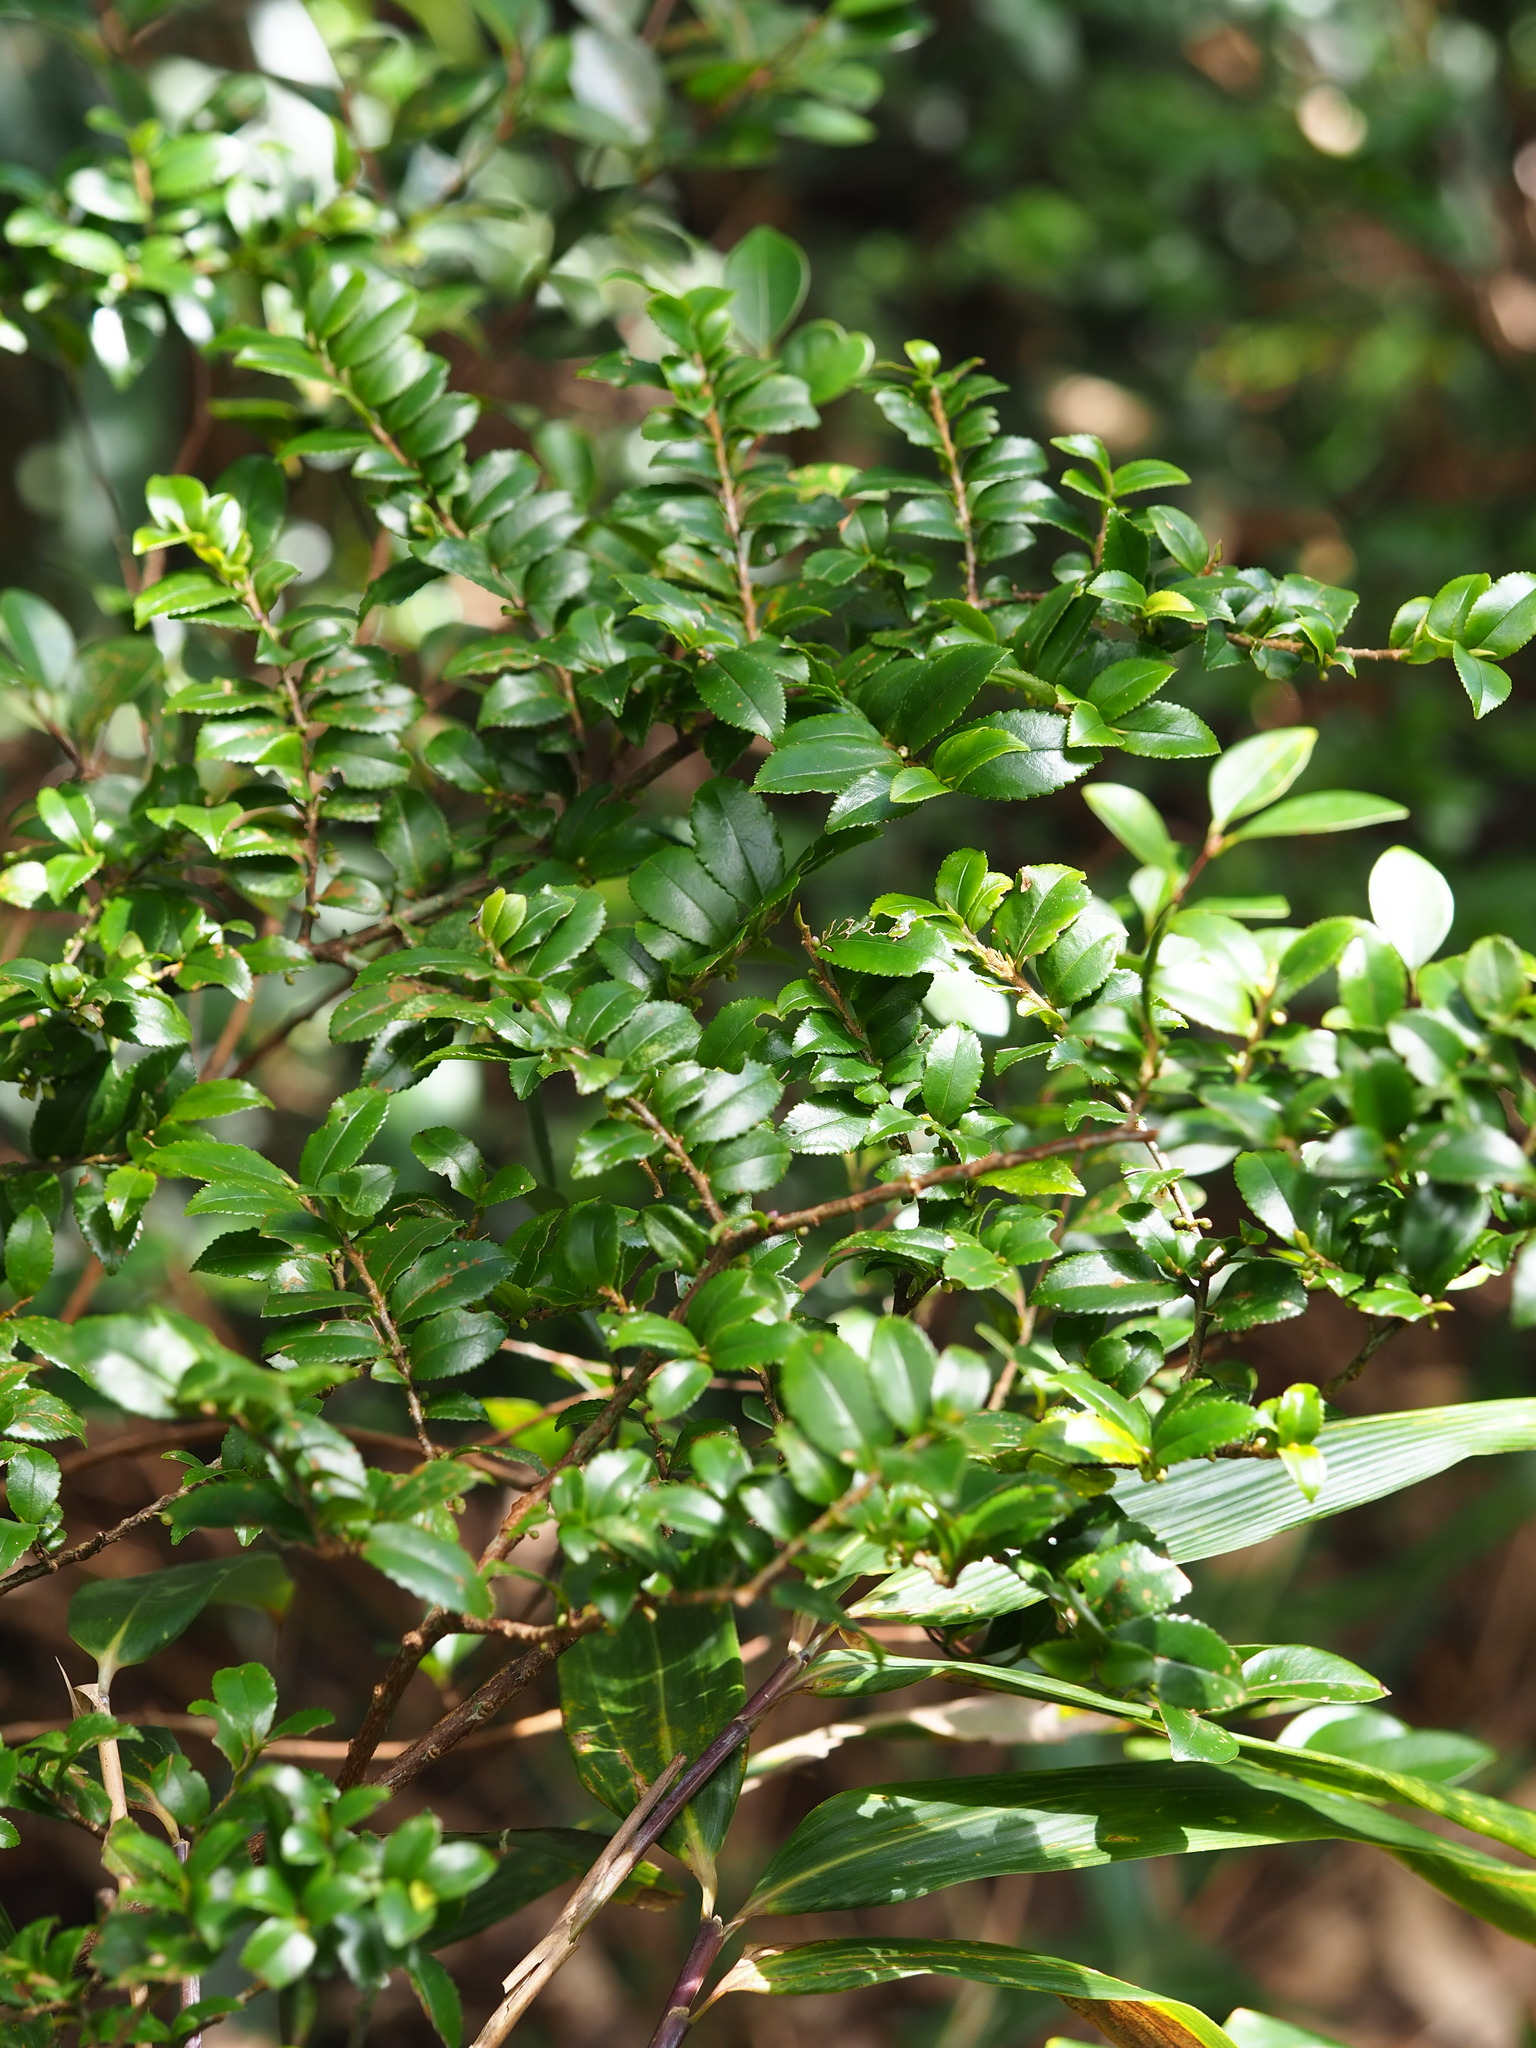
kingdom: Plantae
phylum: Tracheophyta
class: Magnoliopsida
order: Ericales
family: Pentaphylacaceae
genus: Eurya
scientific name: Eurya crenatifolia
